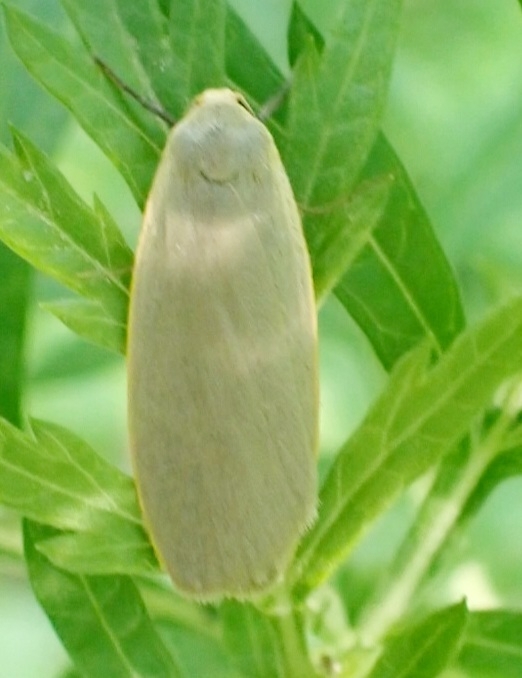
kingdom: Animalia
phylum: Arthropoda
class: Insecta
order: Lepidoptera
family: Erebidae
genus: Collita
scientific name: Collita griseola
